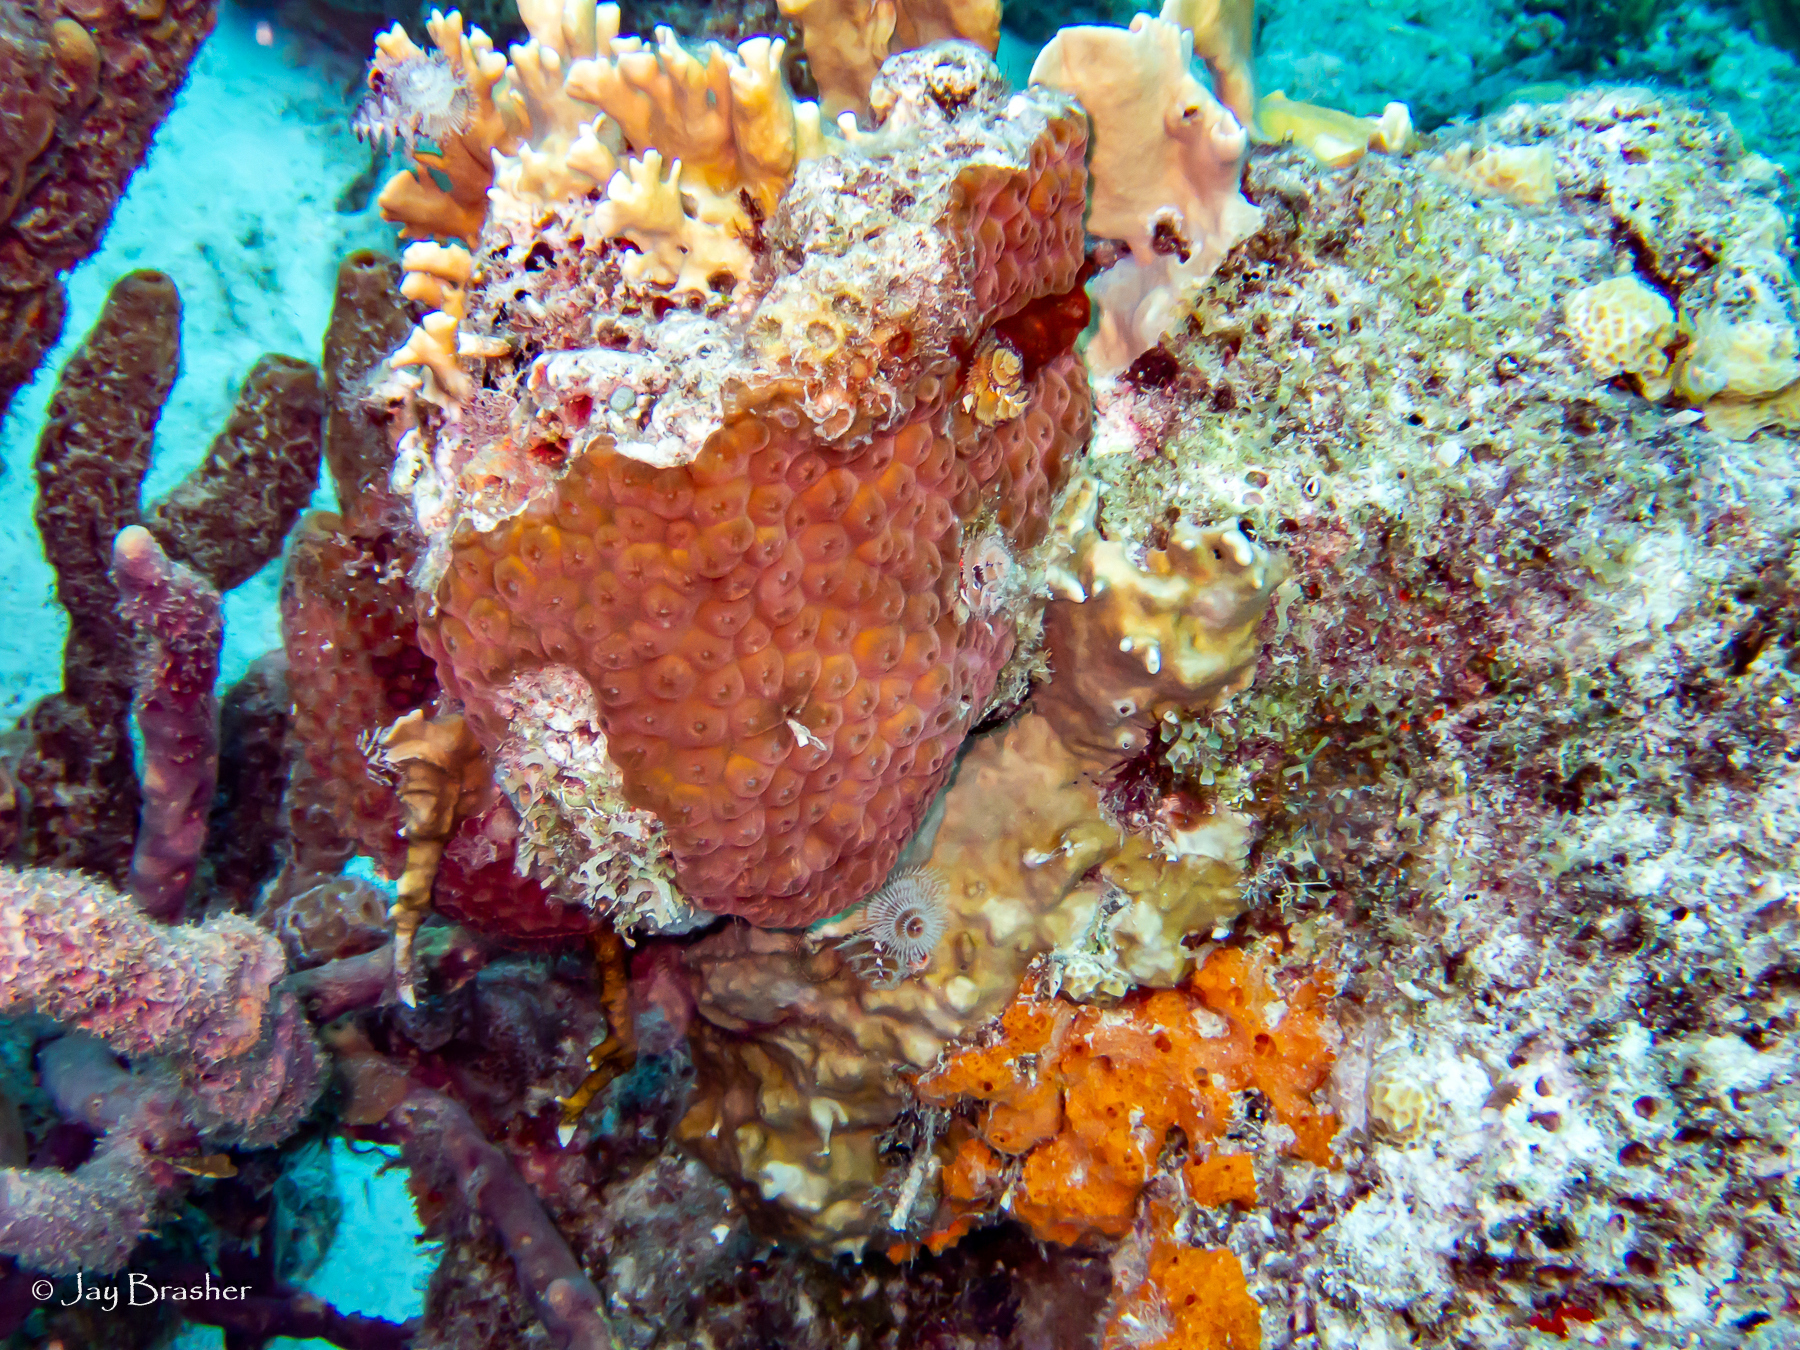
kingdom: Animalia
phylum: Porifera
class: Demospongiae
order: Scopalinida
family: Scopalinidae
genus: Scopalina
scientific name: Scopalina ruetzleri
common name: Orange lumpy encrusting sponge
